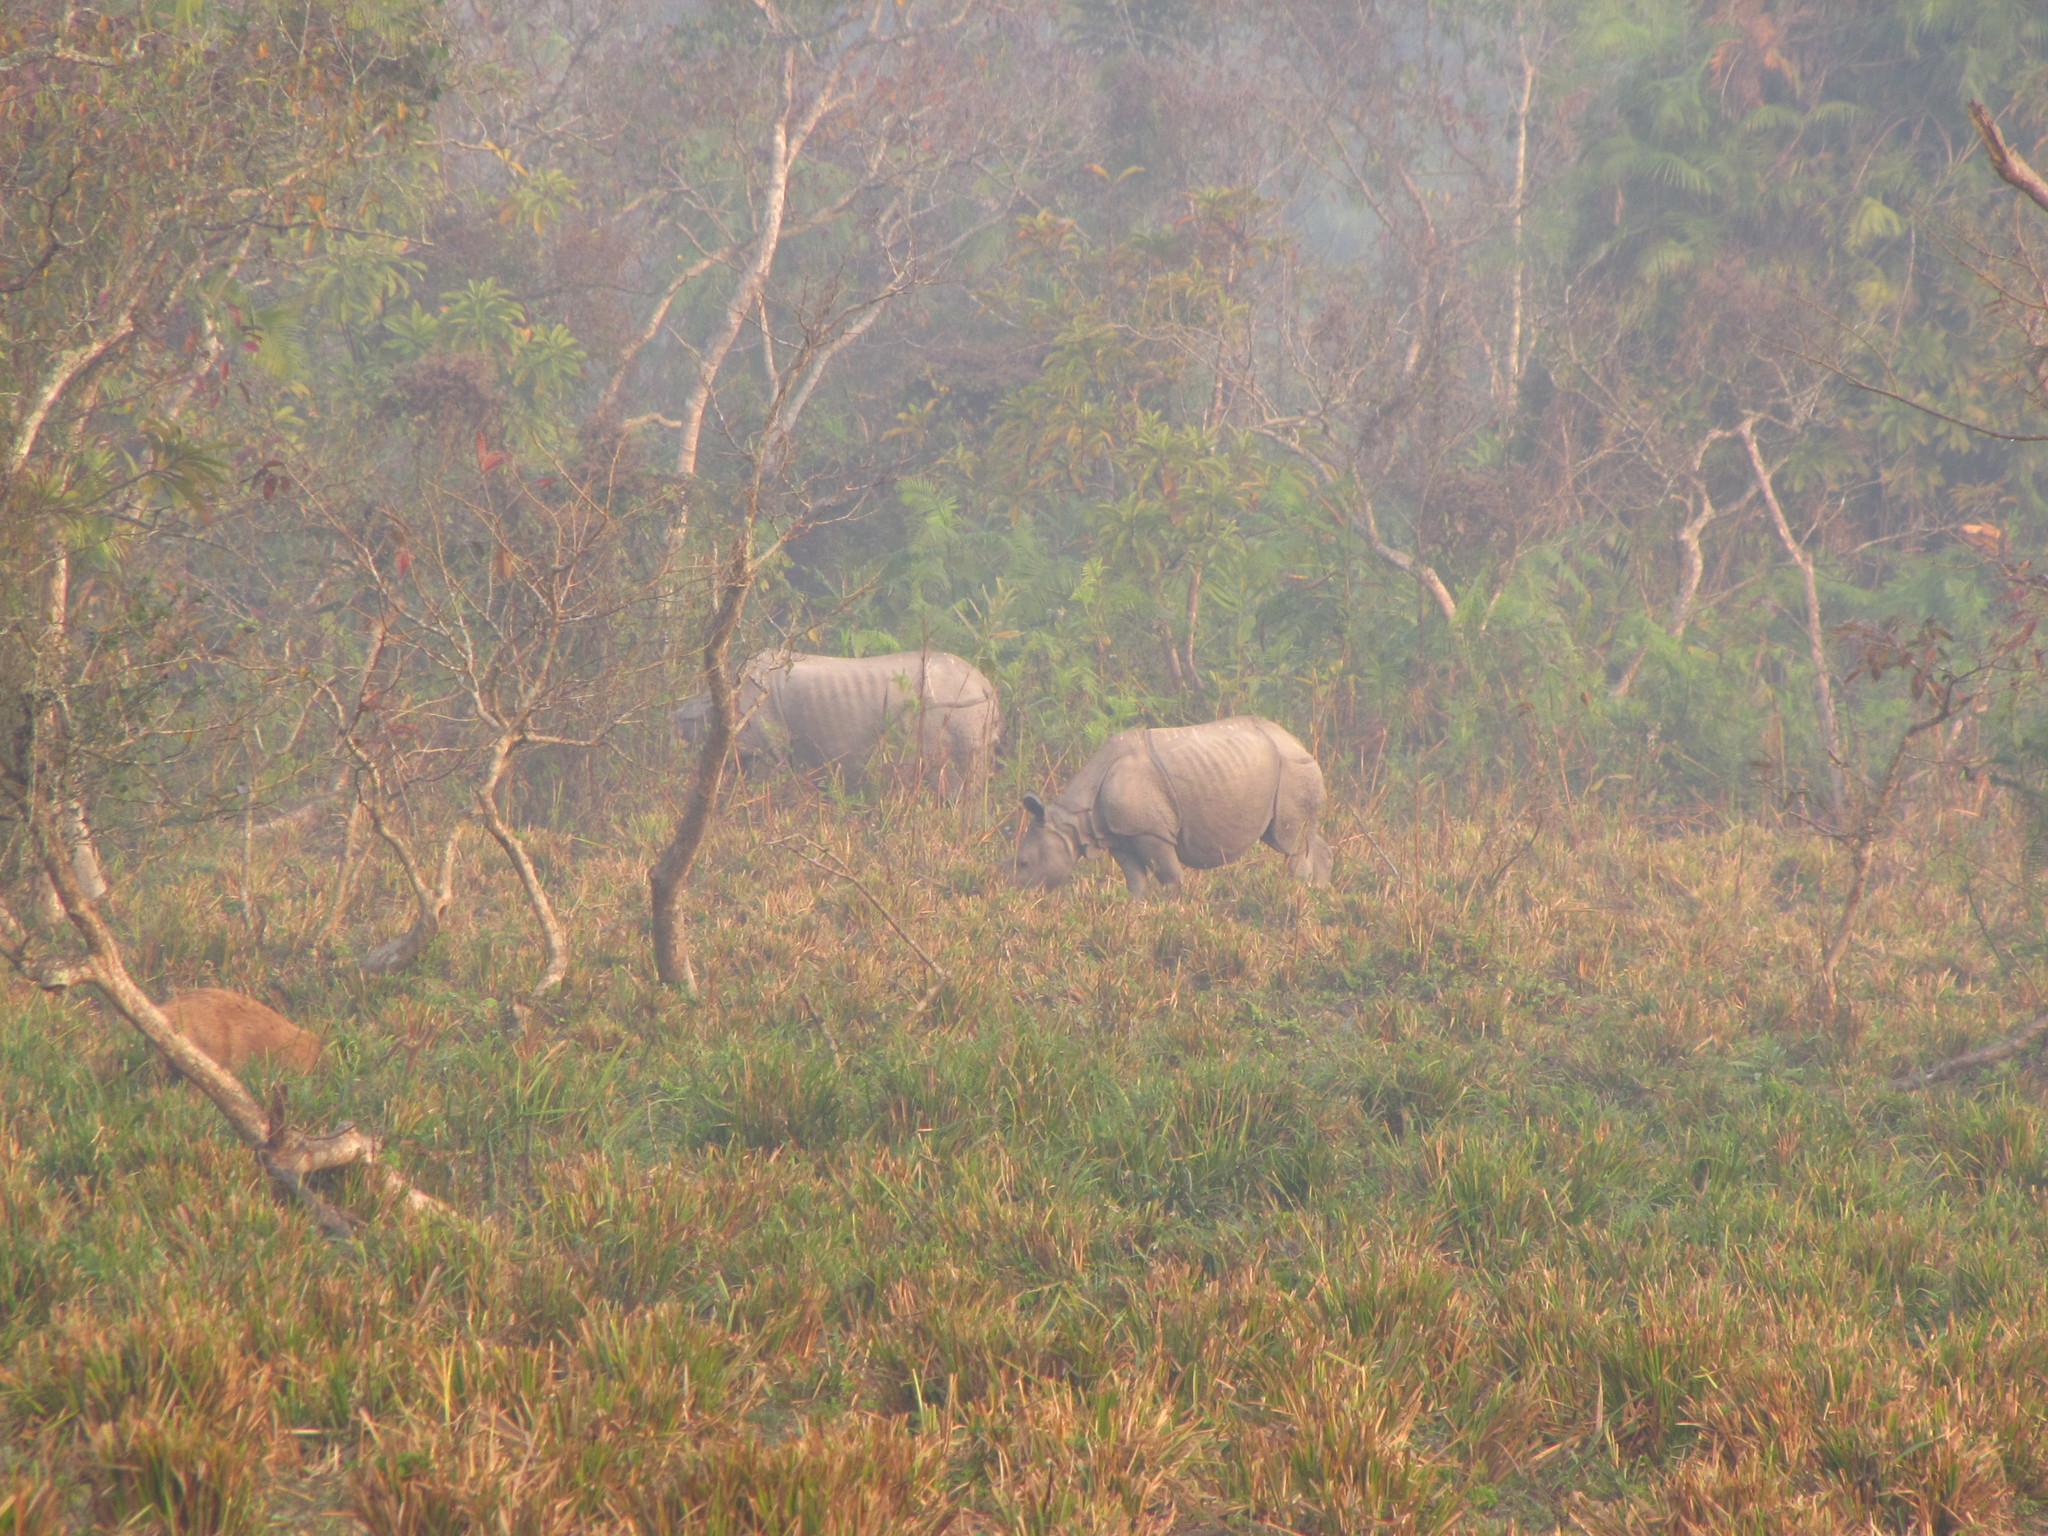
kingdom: Animalia
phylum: Chordata
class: Mammalia
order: Perissodactyla
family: Rhinocerotidae
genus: Rhinoceros
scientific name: Rhinoceros unicornis
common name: Indian rhinoceros
